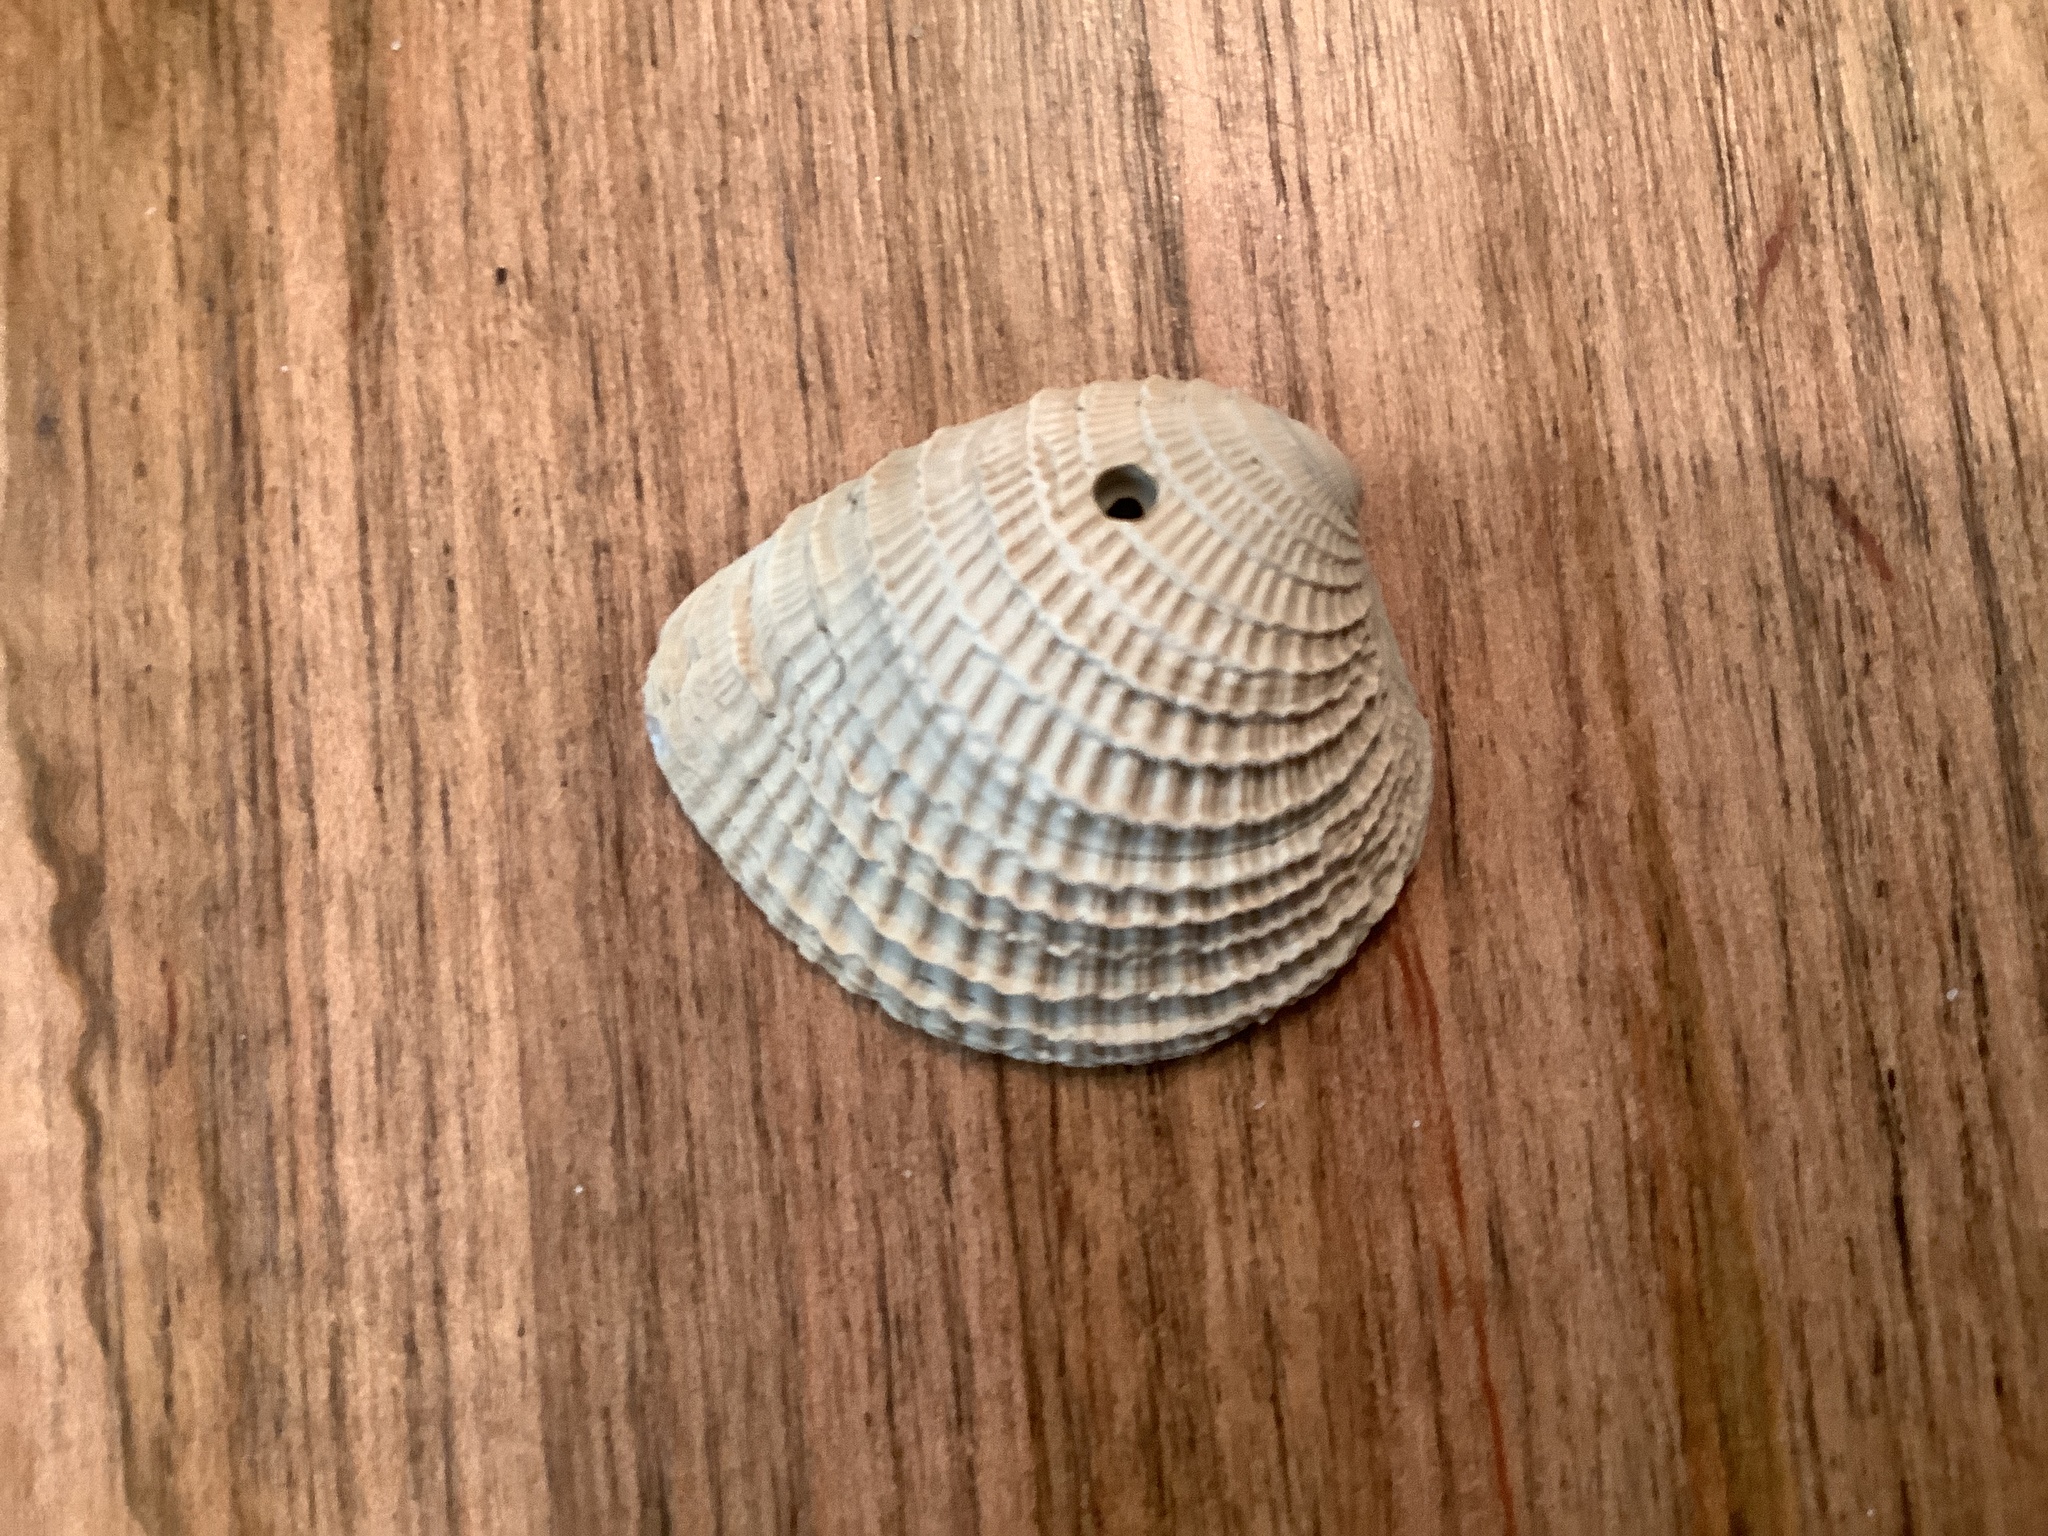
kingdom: Animalia
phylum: Mollusca
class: Bivalvia
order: Venerida
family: Veneridae
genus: Chione
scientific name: Chione elevata
